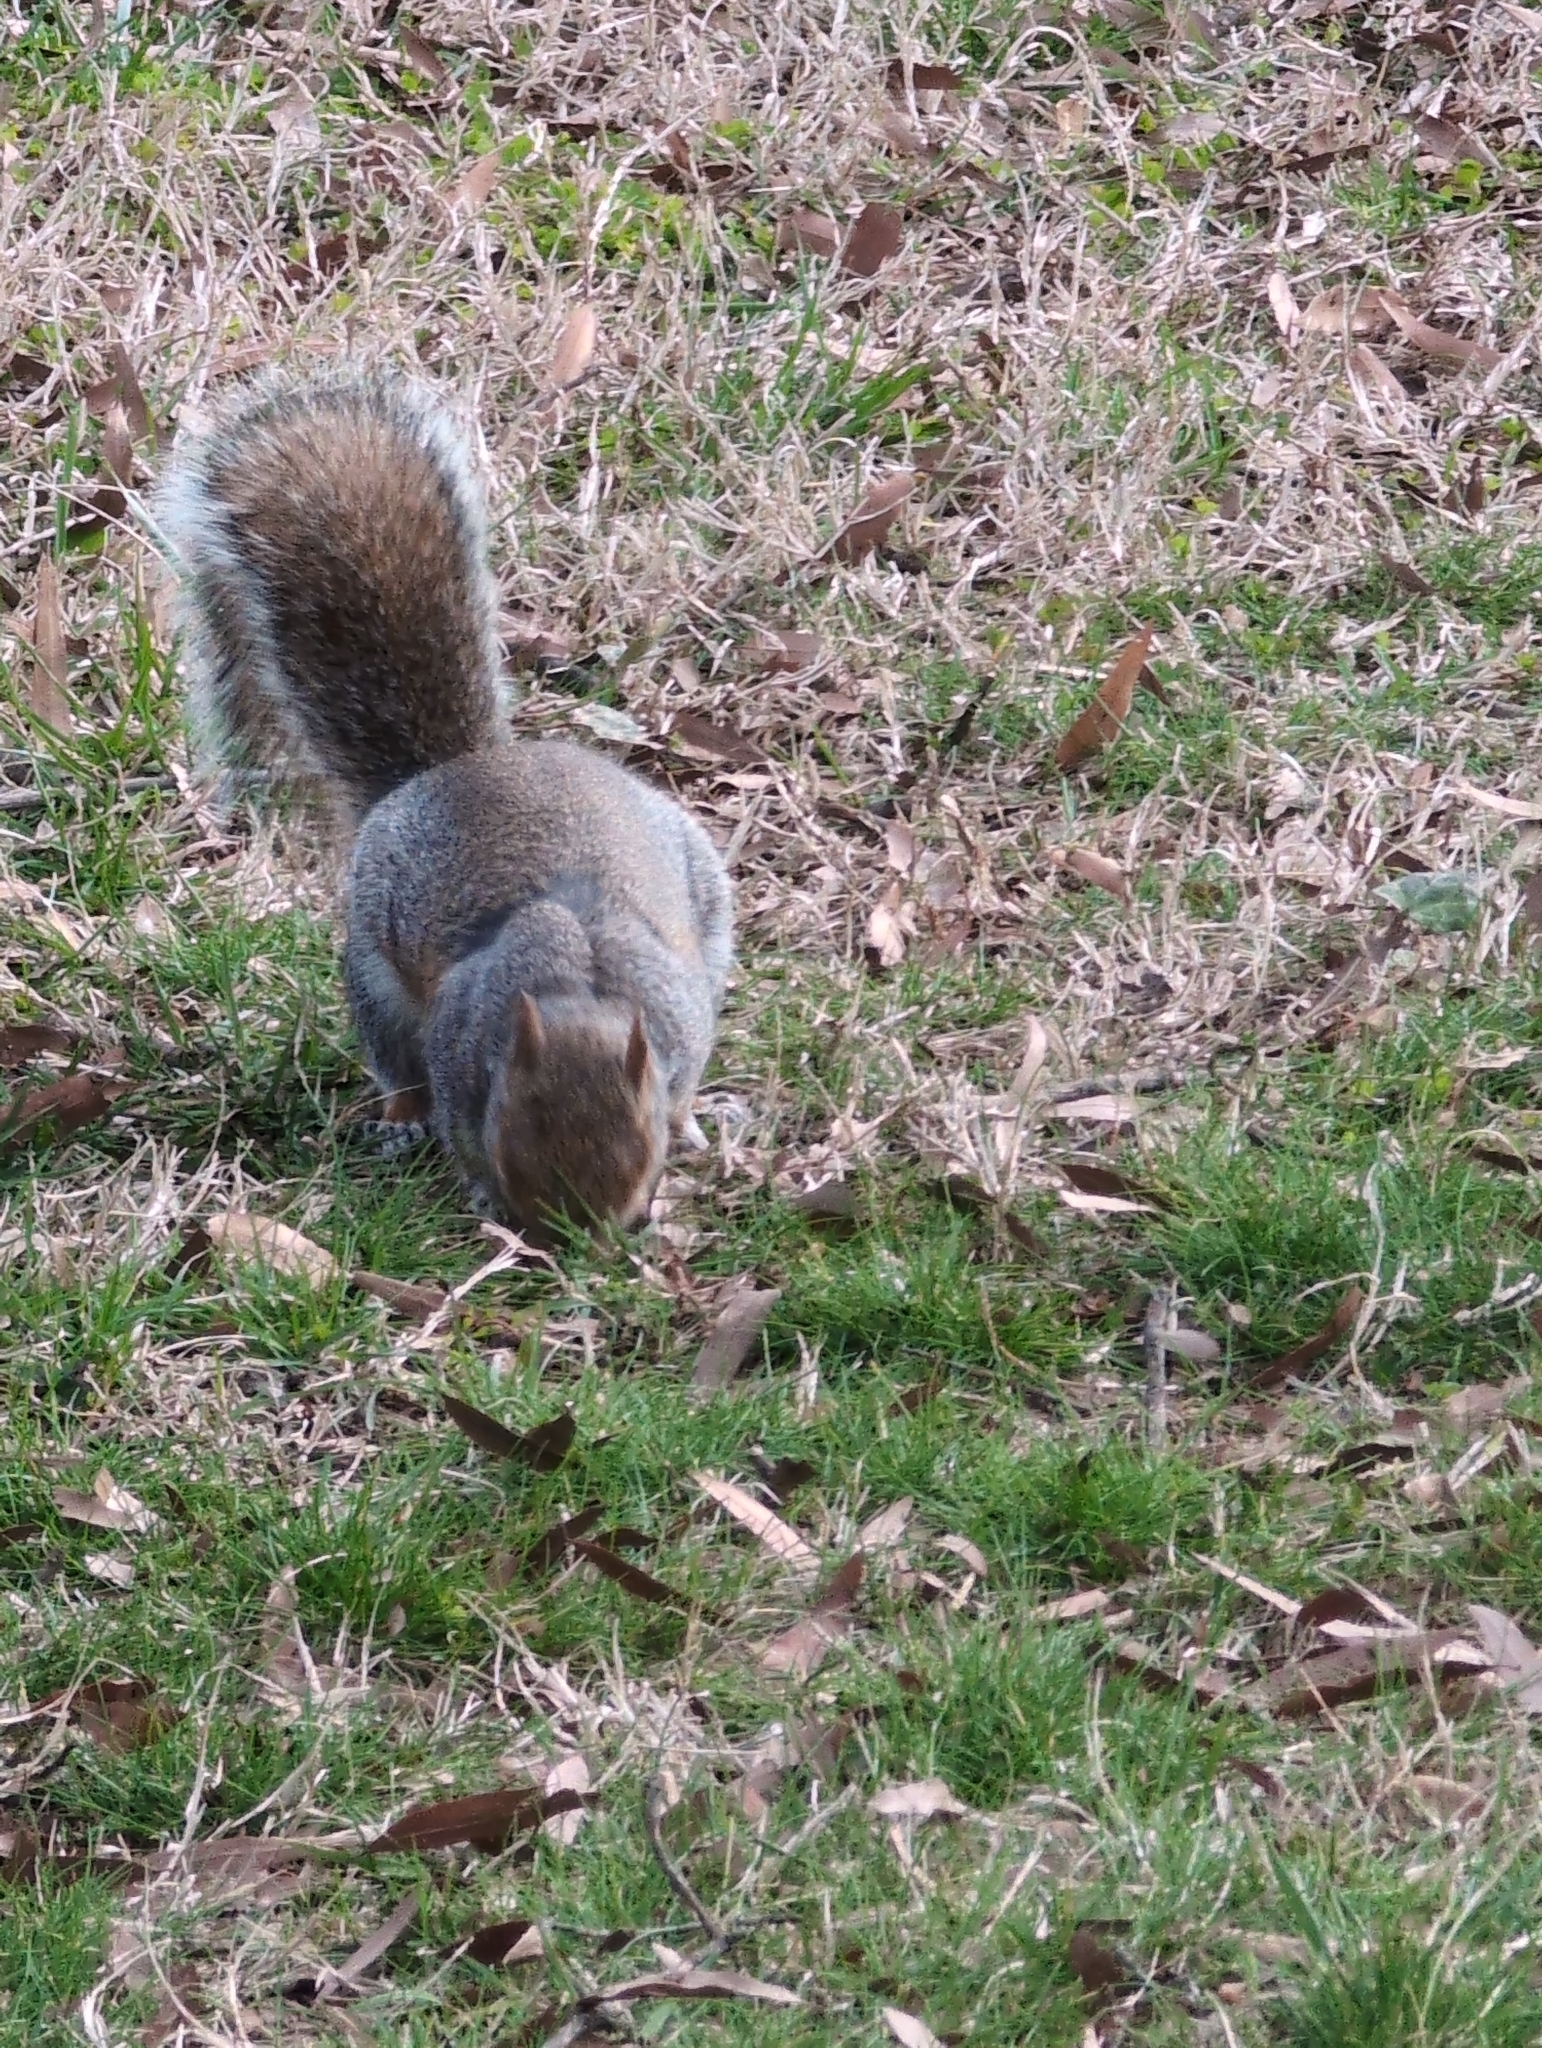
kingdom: Animalia
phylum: Chordata
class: Mammalia
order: Rodentia
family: Sciuridae
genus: Sciurus
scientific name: Sciurus carolinensis
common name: Eastern gray squirrel
